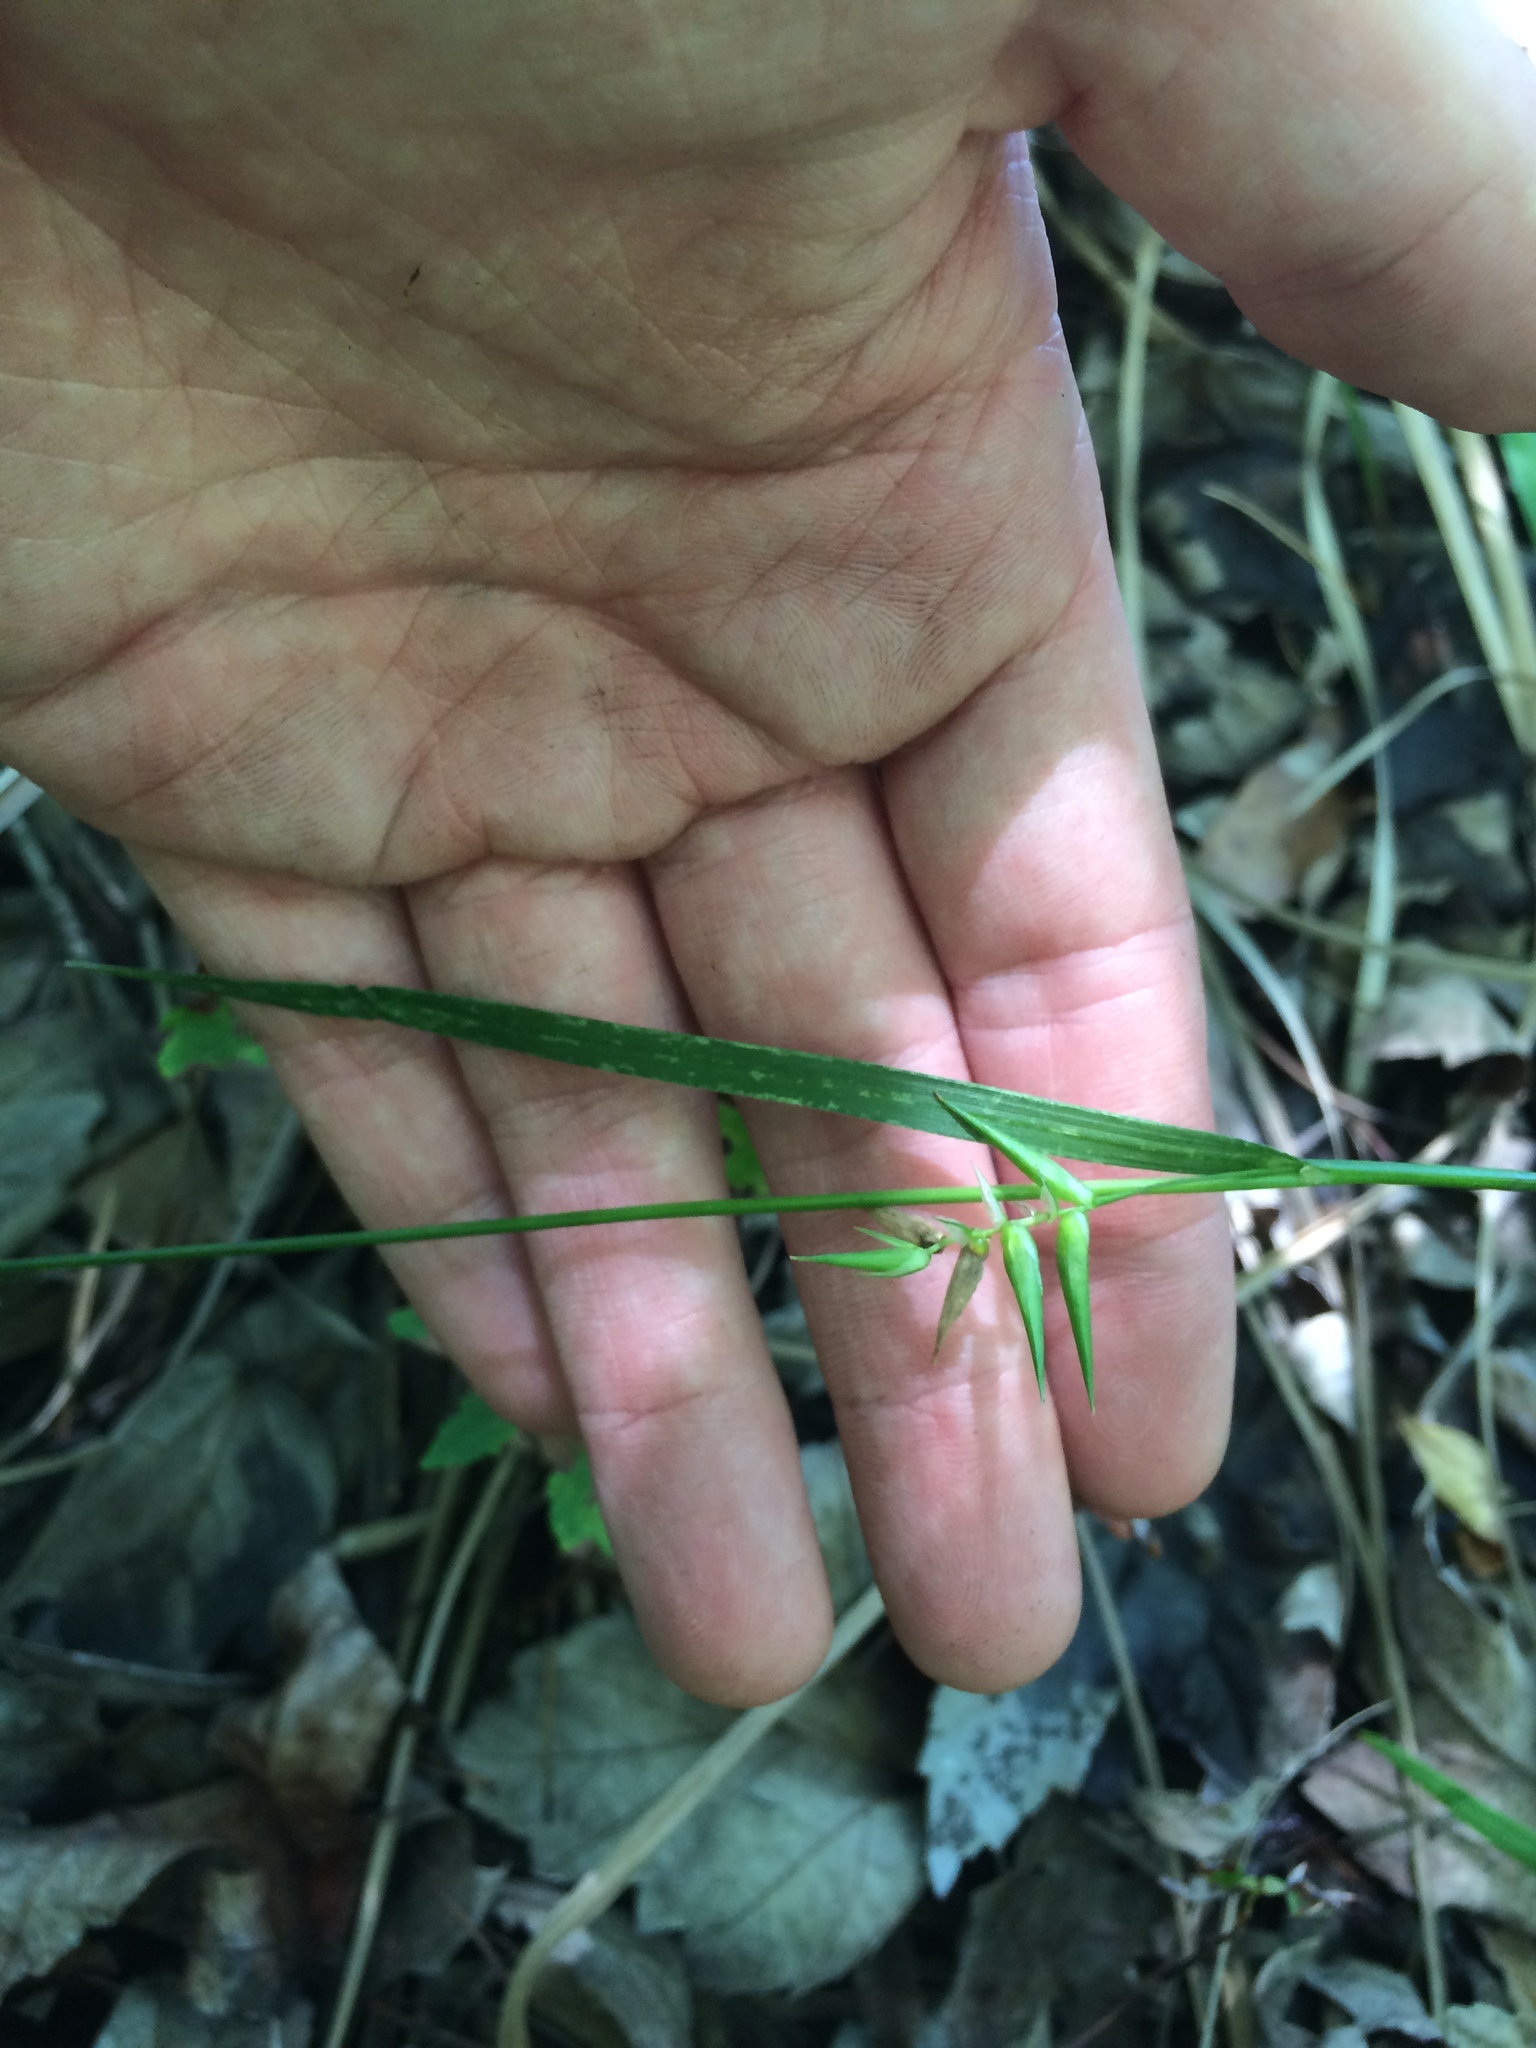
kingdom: Plantae
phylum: Tracheophyta
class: Liliopsida
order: Poales
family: Cyperaceae
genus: Carex
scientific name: Carex lonchocarpa
